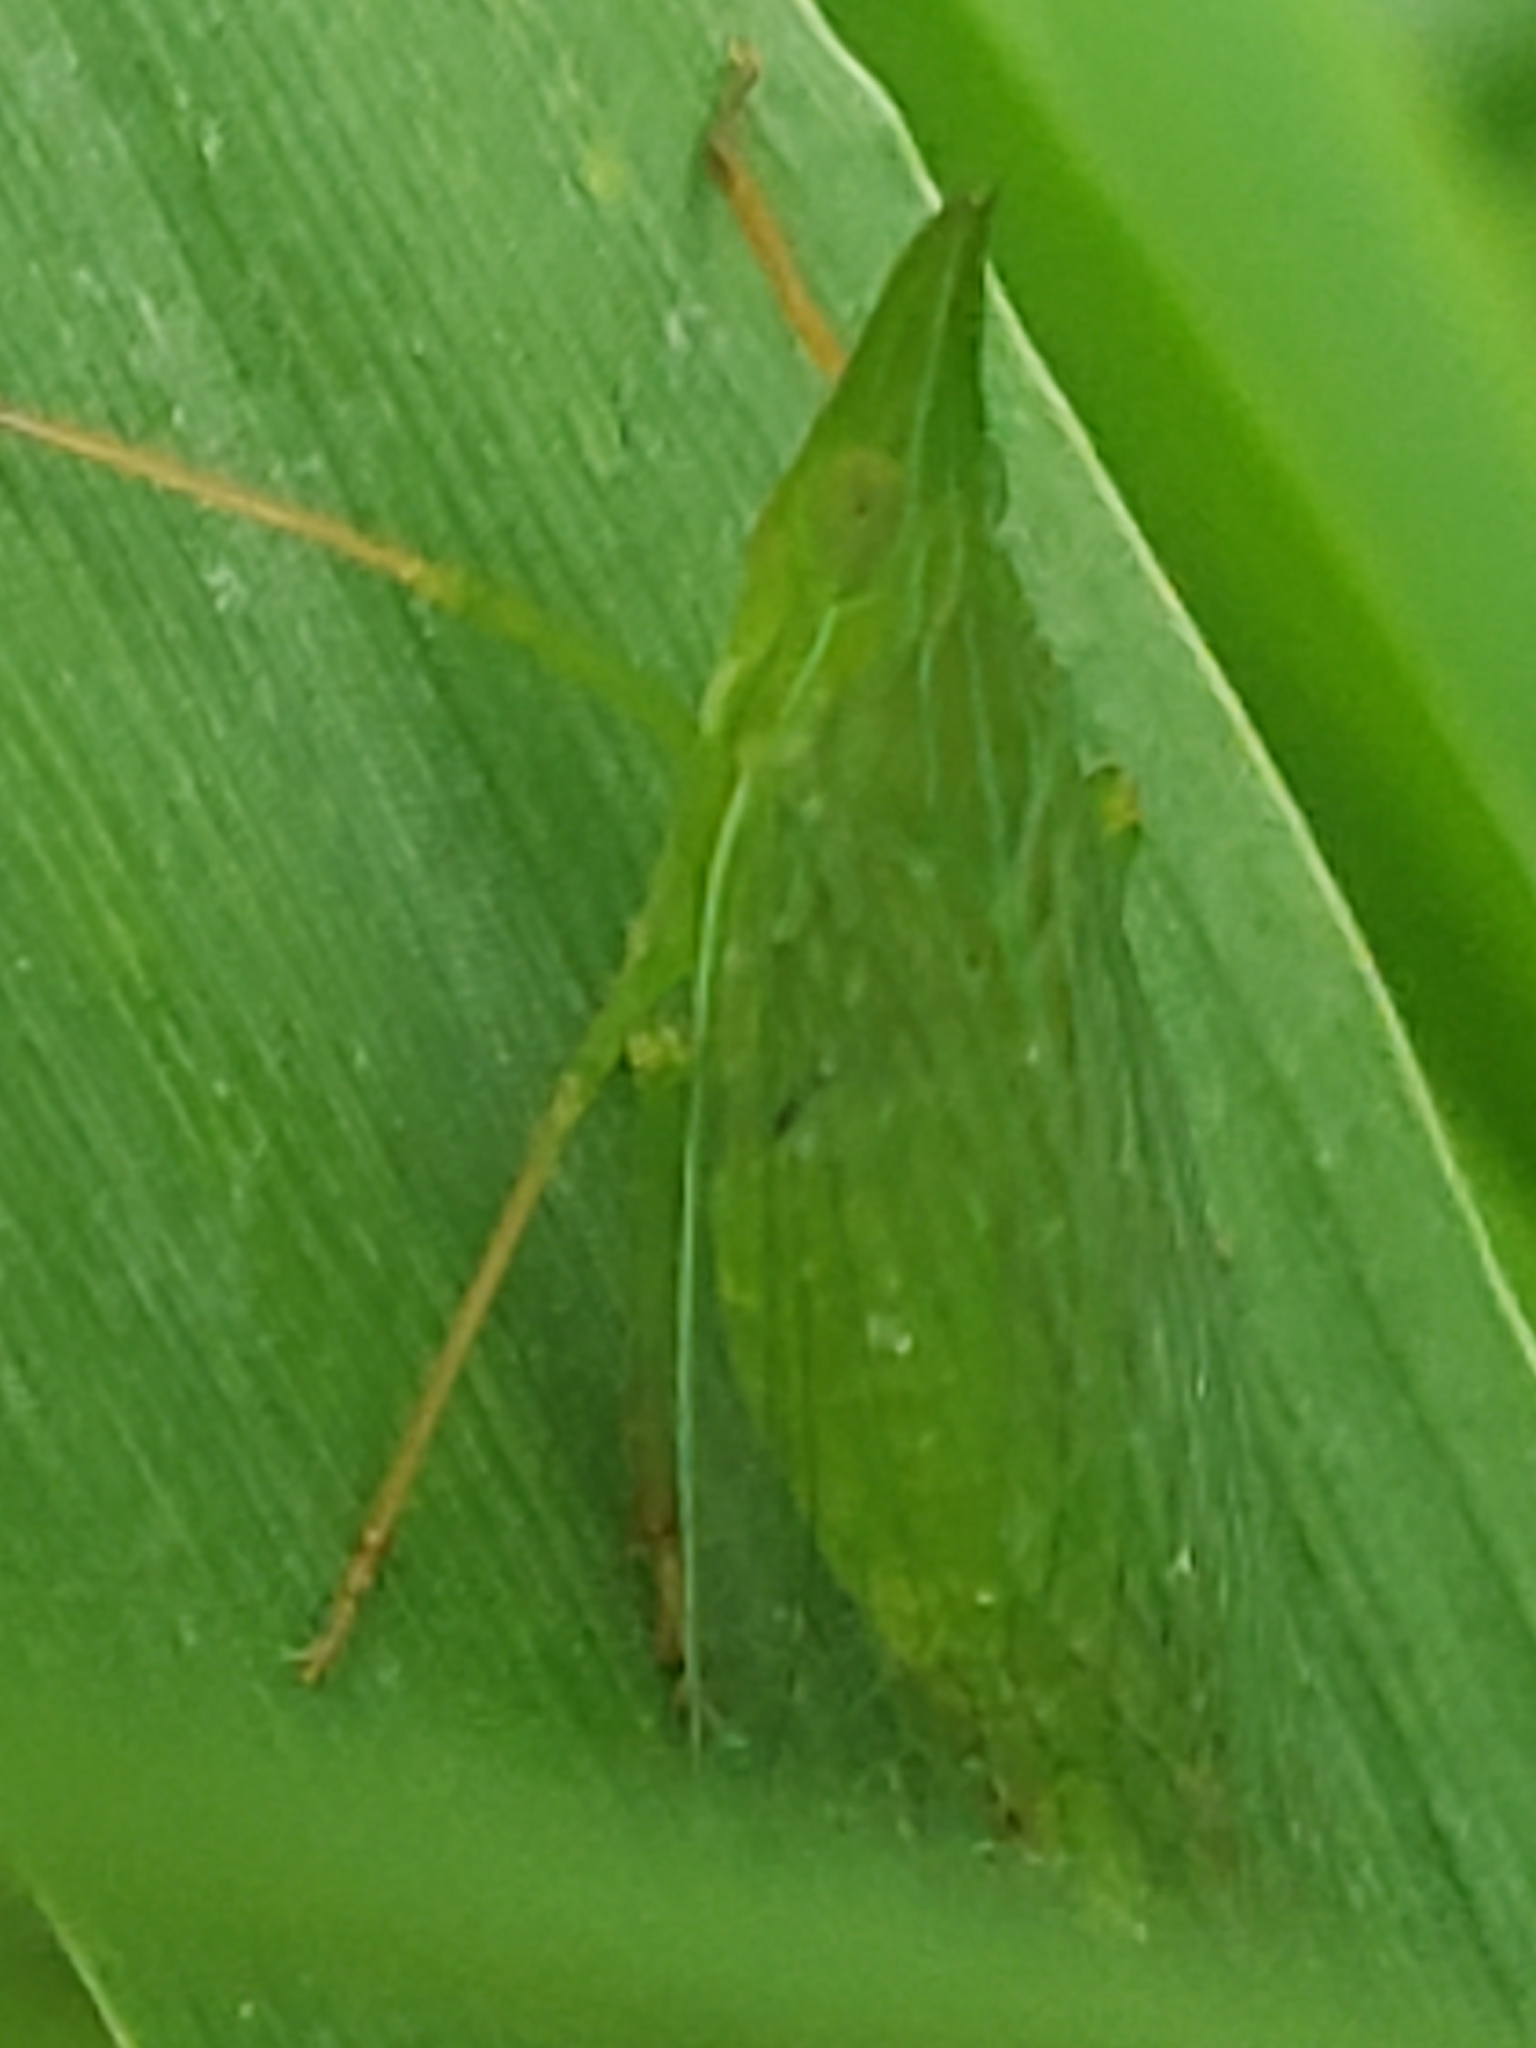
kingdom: Animalia
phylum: Arthropoda
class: Insecta
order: Hemiptera
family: Dictyopharidae
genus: Rhynchomitra
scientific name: Rhynchomitra microrhina
